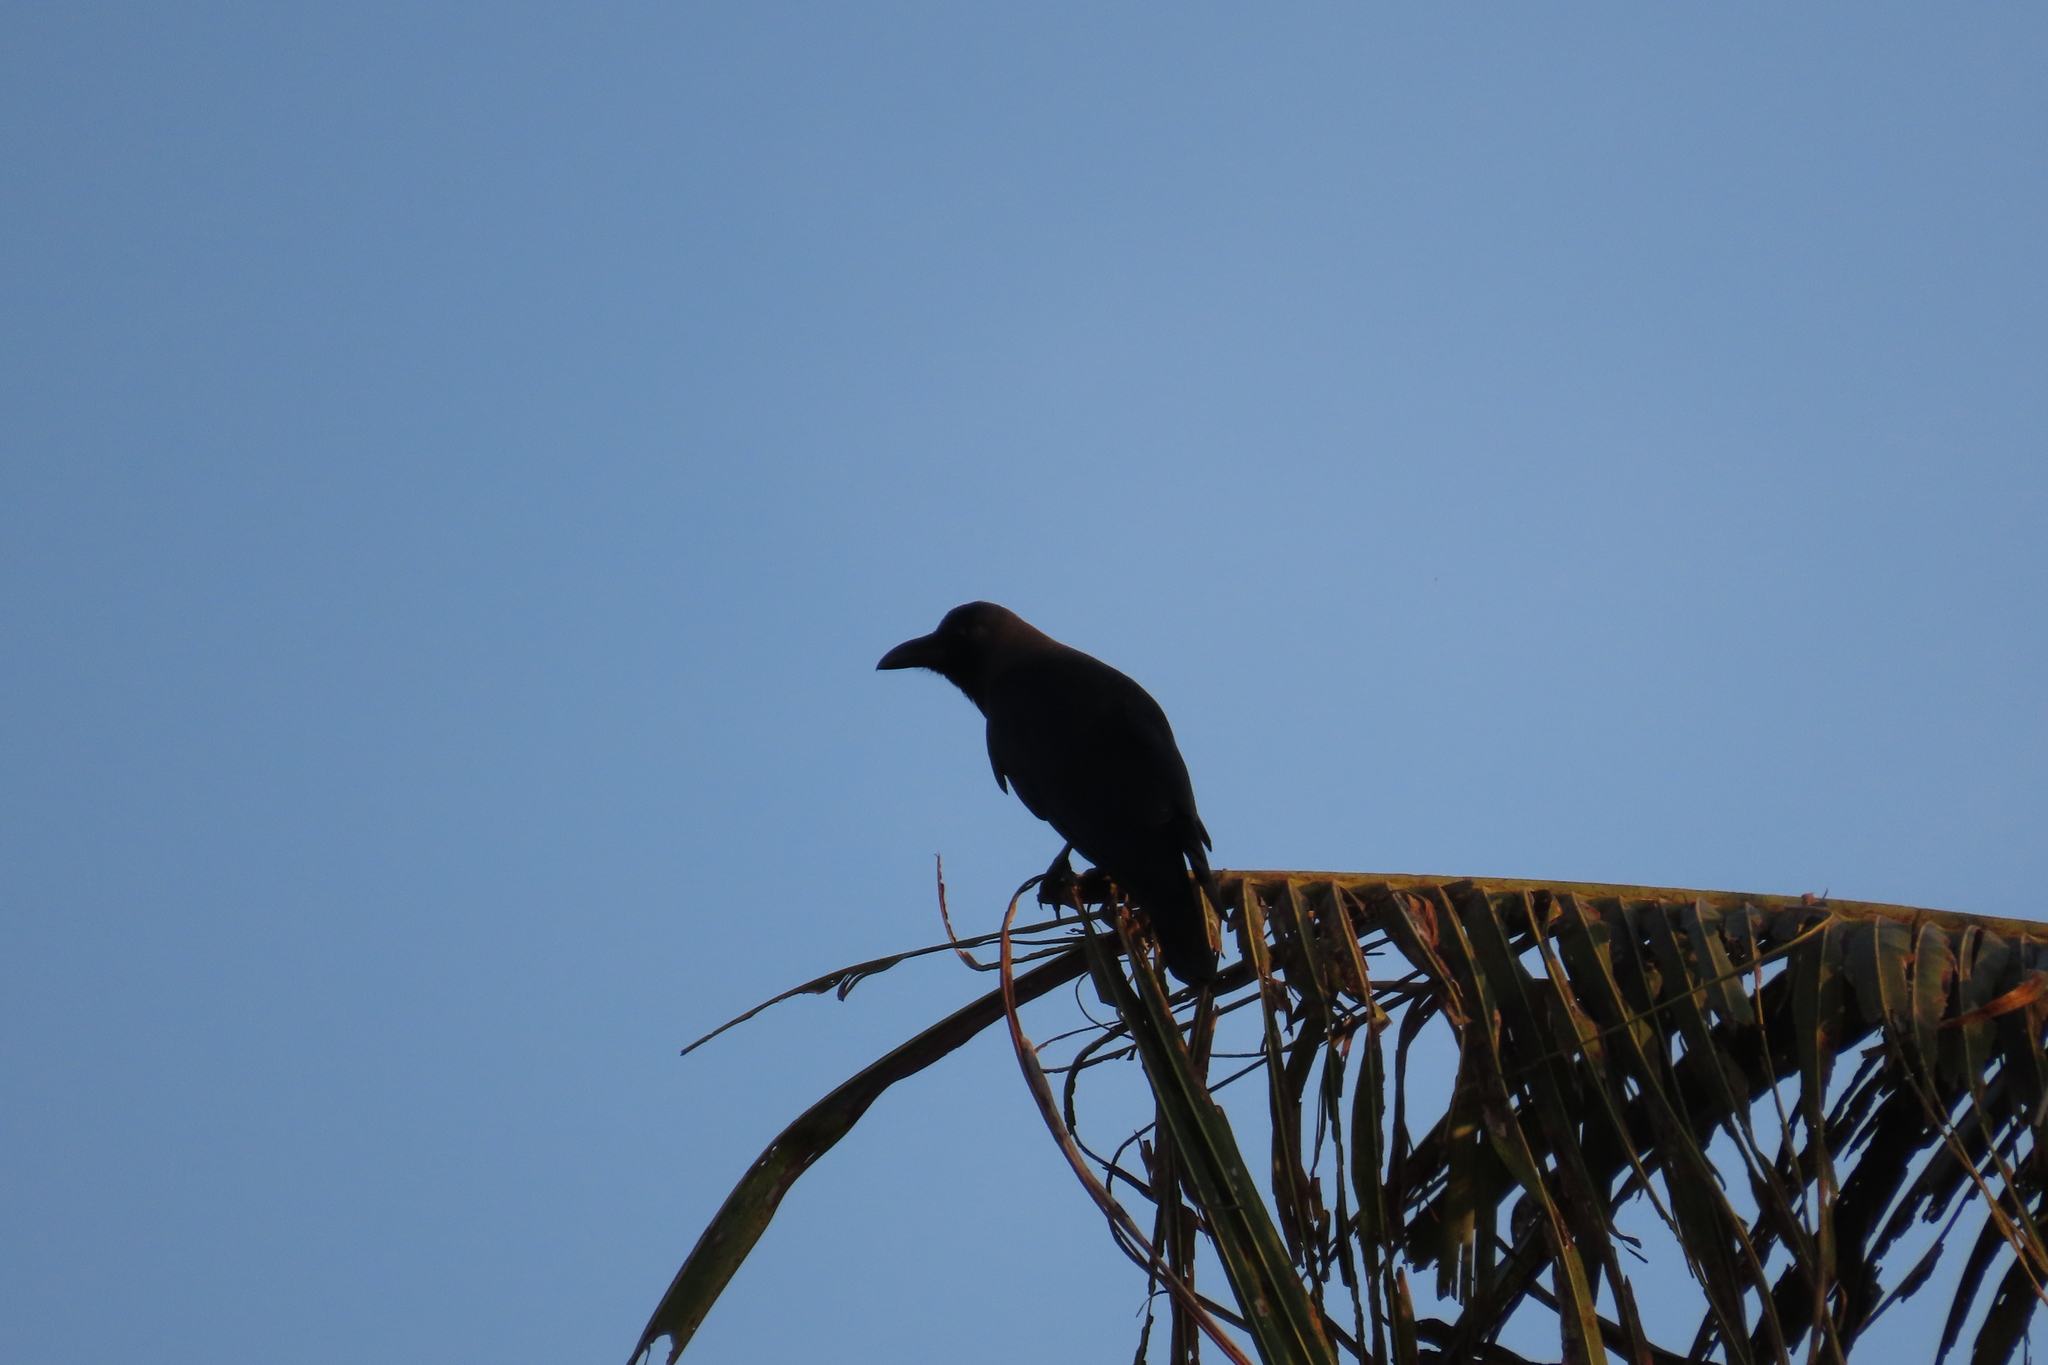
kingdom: Animalia
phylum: Chordata
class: Aves
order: Passeriformes
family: Corvidae
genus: Corvus
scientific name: Corvus splendens
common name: House crow
